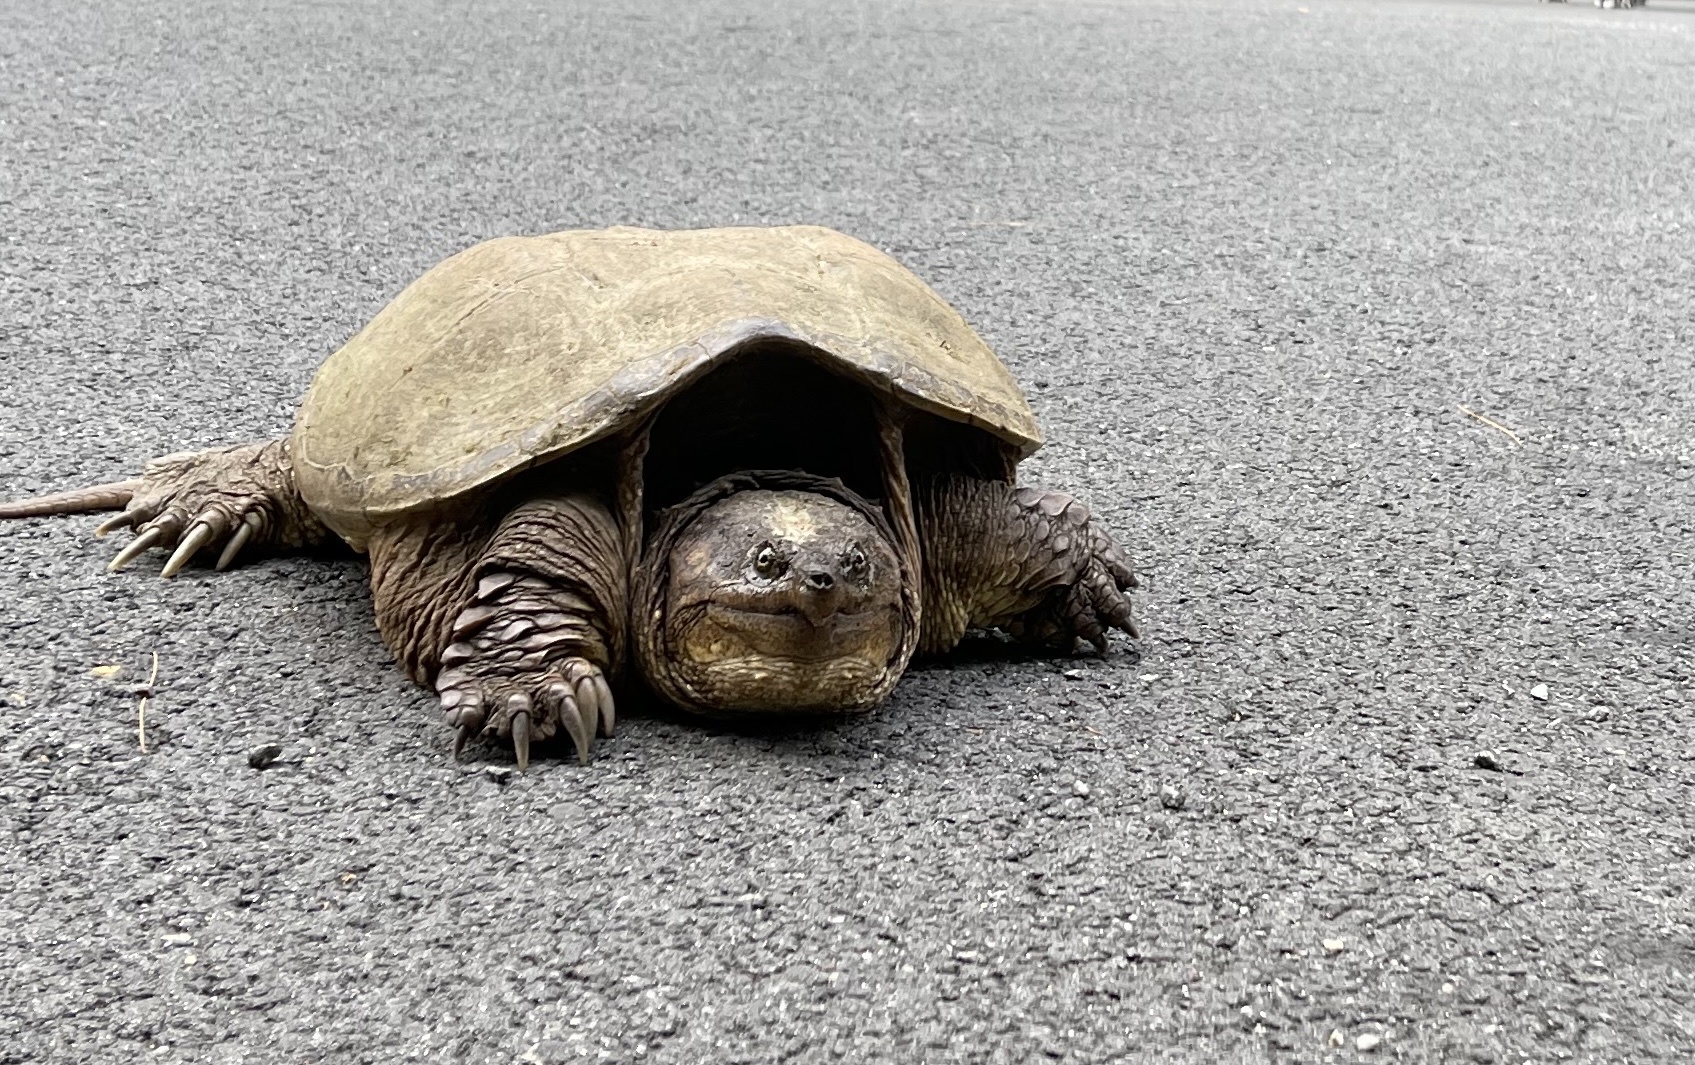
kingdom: Animalia
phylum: Chordata
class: Testudines
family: Chelydridae
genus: Chelydra
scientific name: Chelydra serpentina
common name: Common snapping turtle
